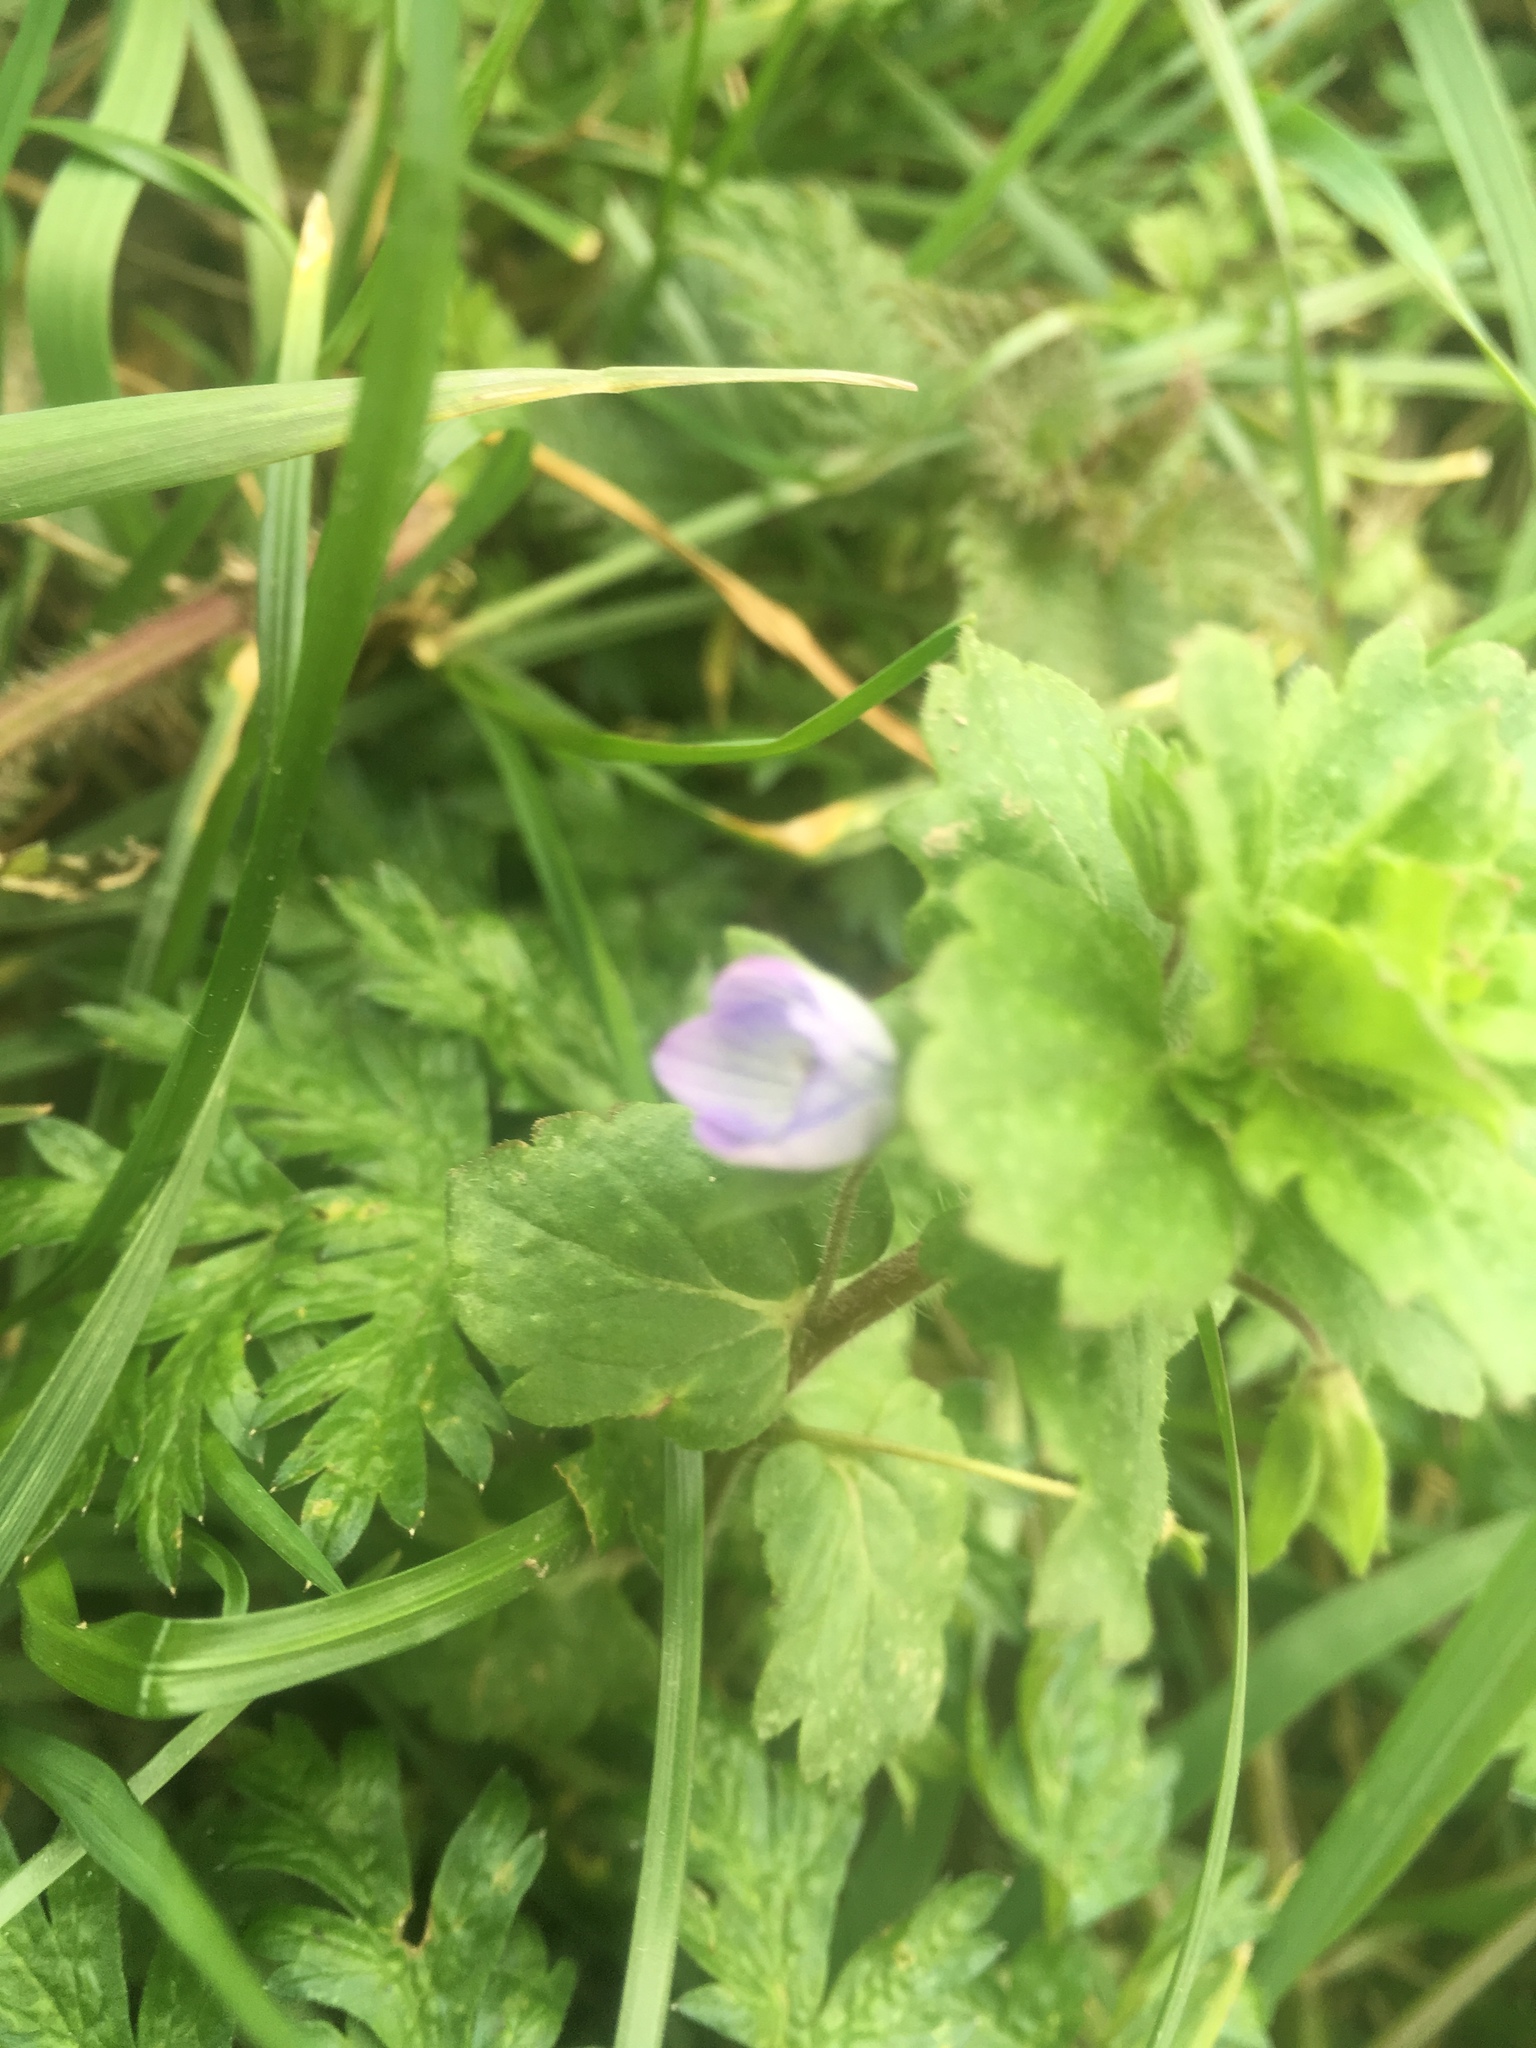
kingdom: Plantae
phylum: Tracheophyta
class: Magnoliopsida
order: Lamiales
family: Plantaginaceae
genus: Veronica
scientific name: Veronica persica
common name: Common field-speedwell
